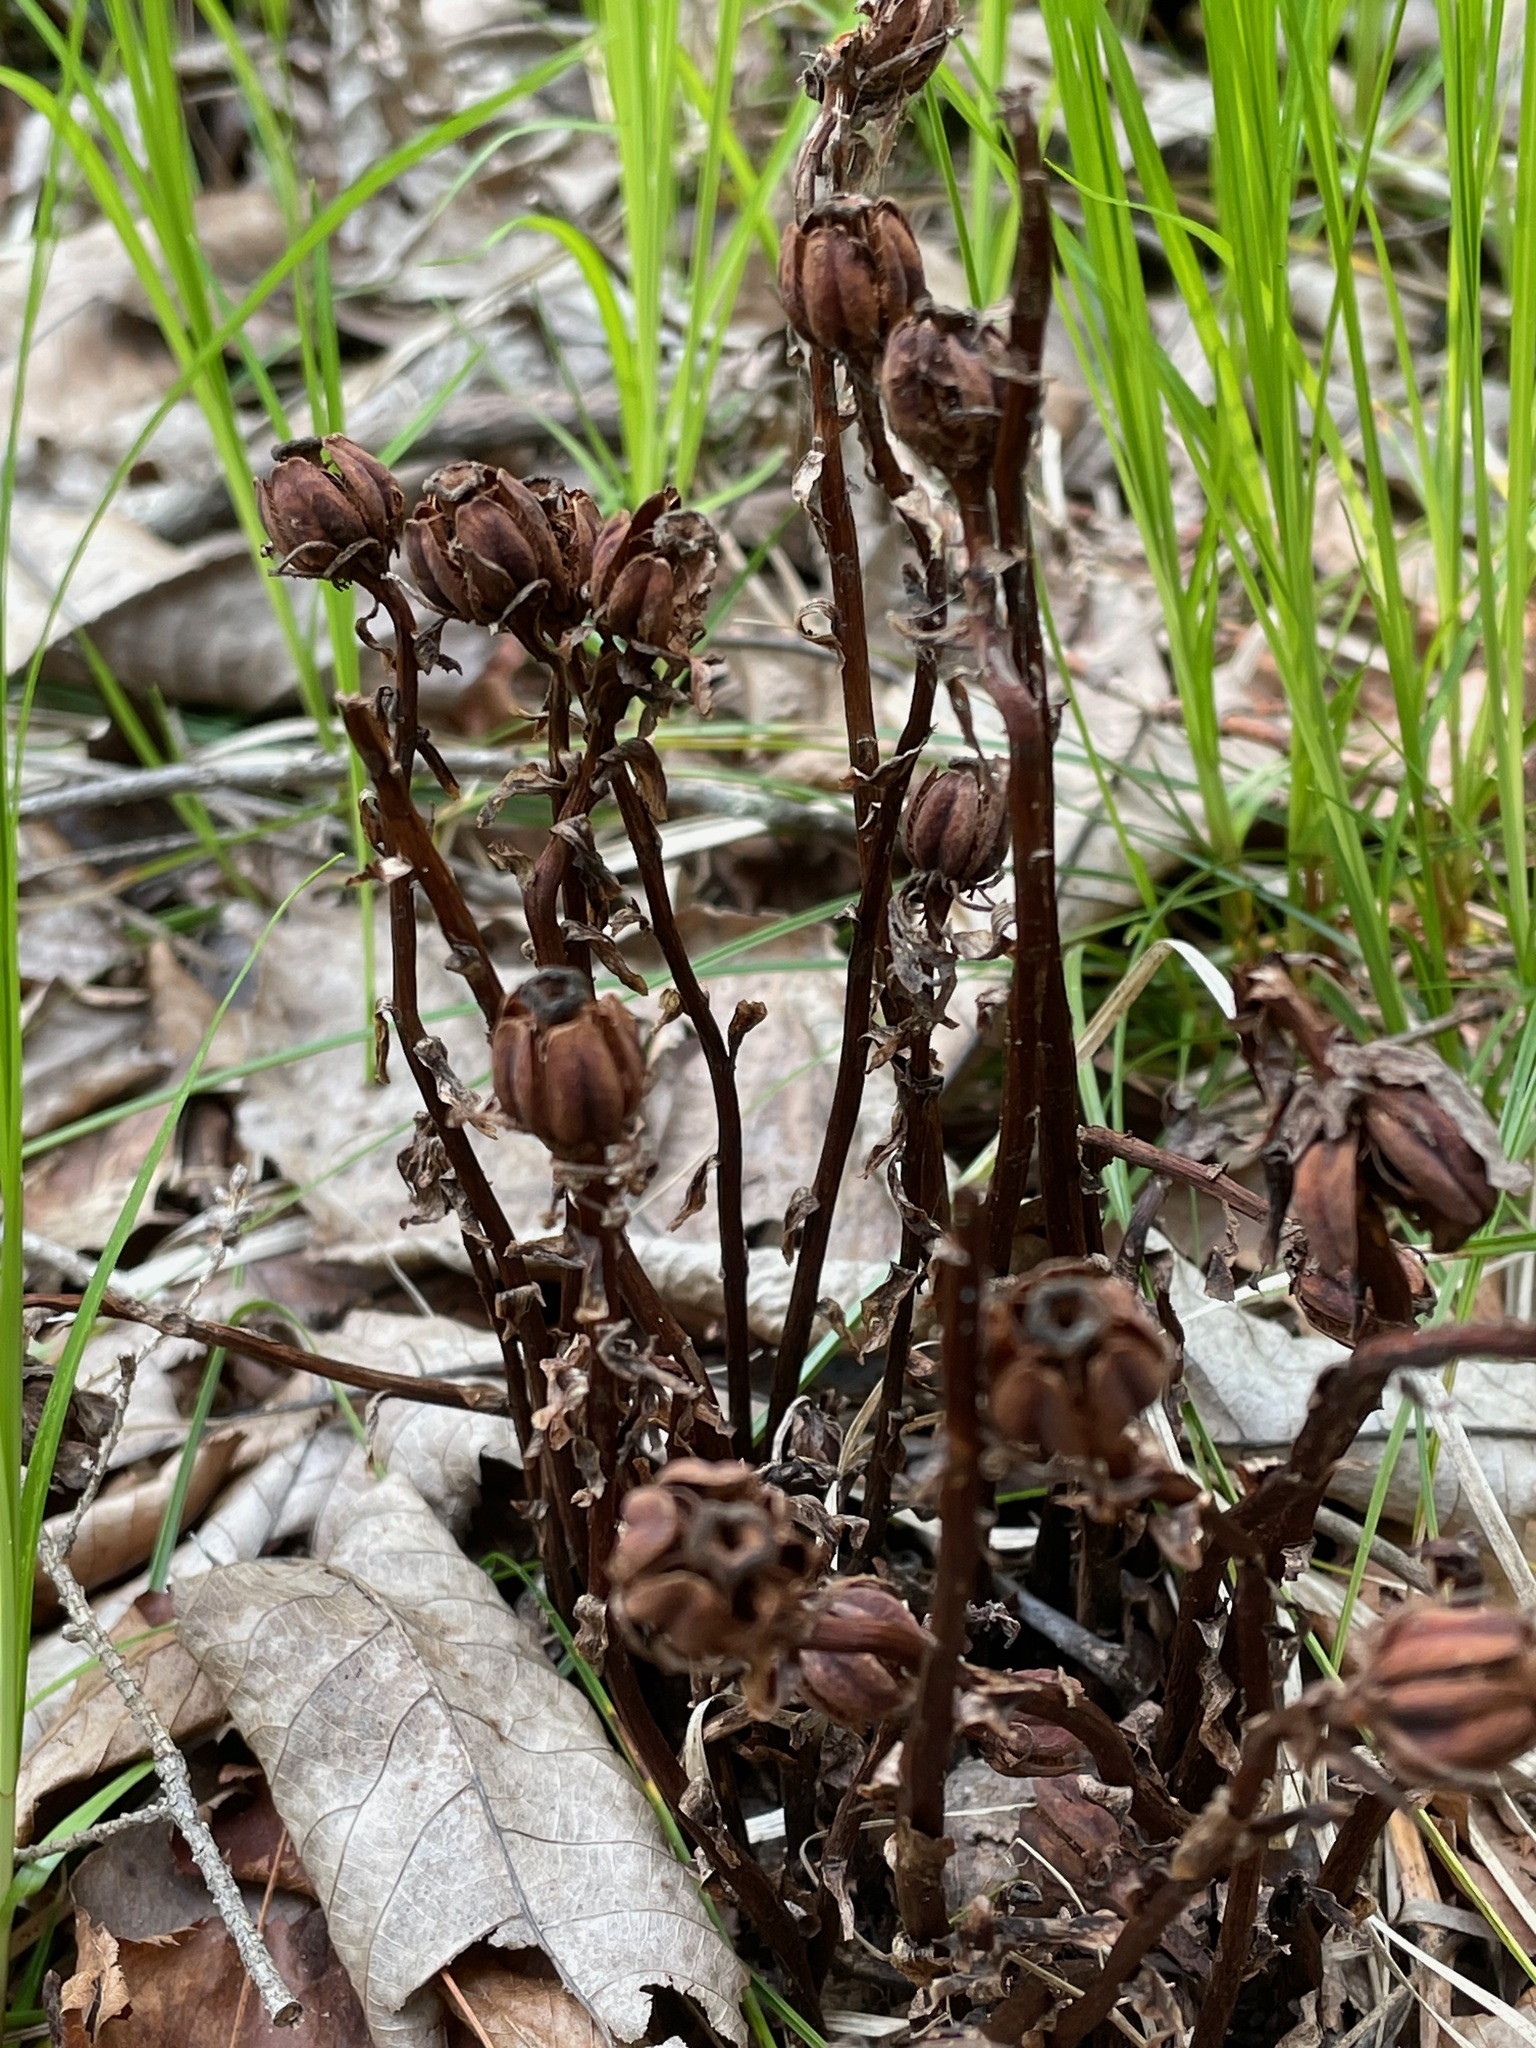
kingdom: Plantae
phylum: Tracheophyta
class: Magnoliopsida
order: Ericales
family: Ericaceae
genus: Monotropa
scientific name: Monotropa uniflora
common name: Convulsion root
